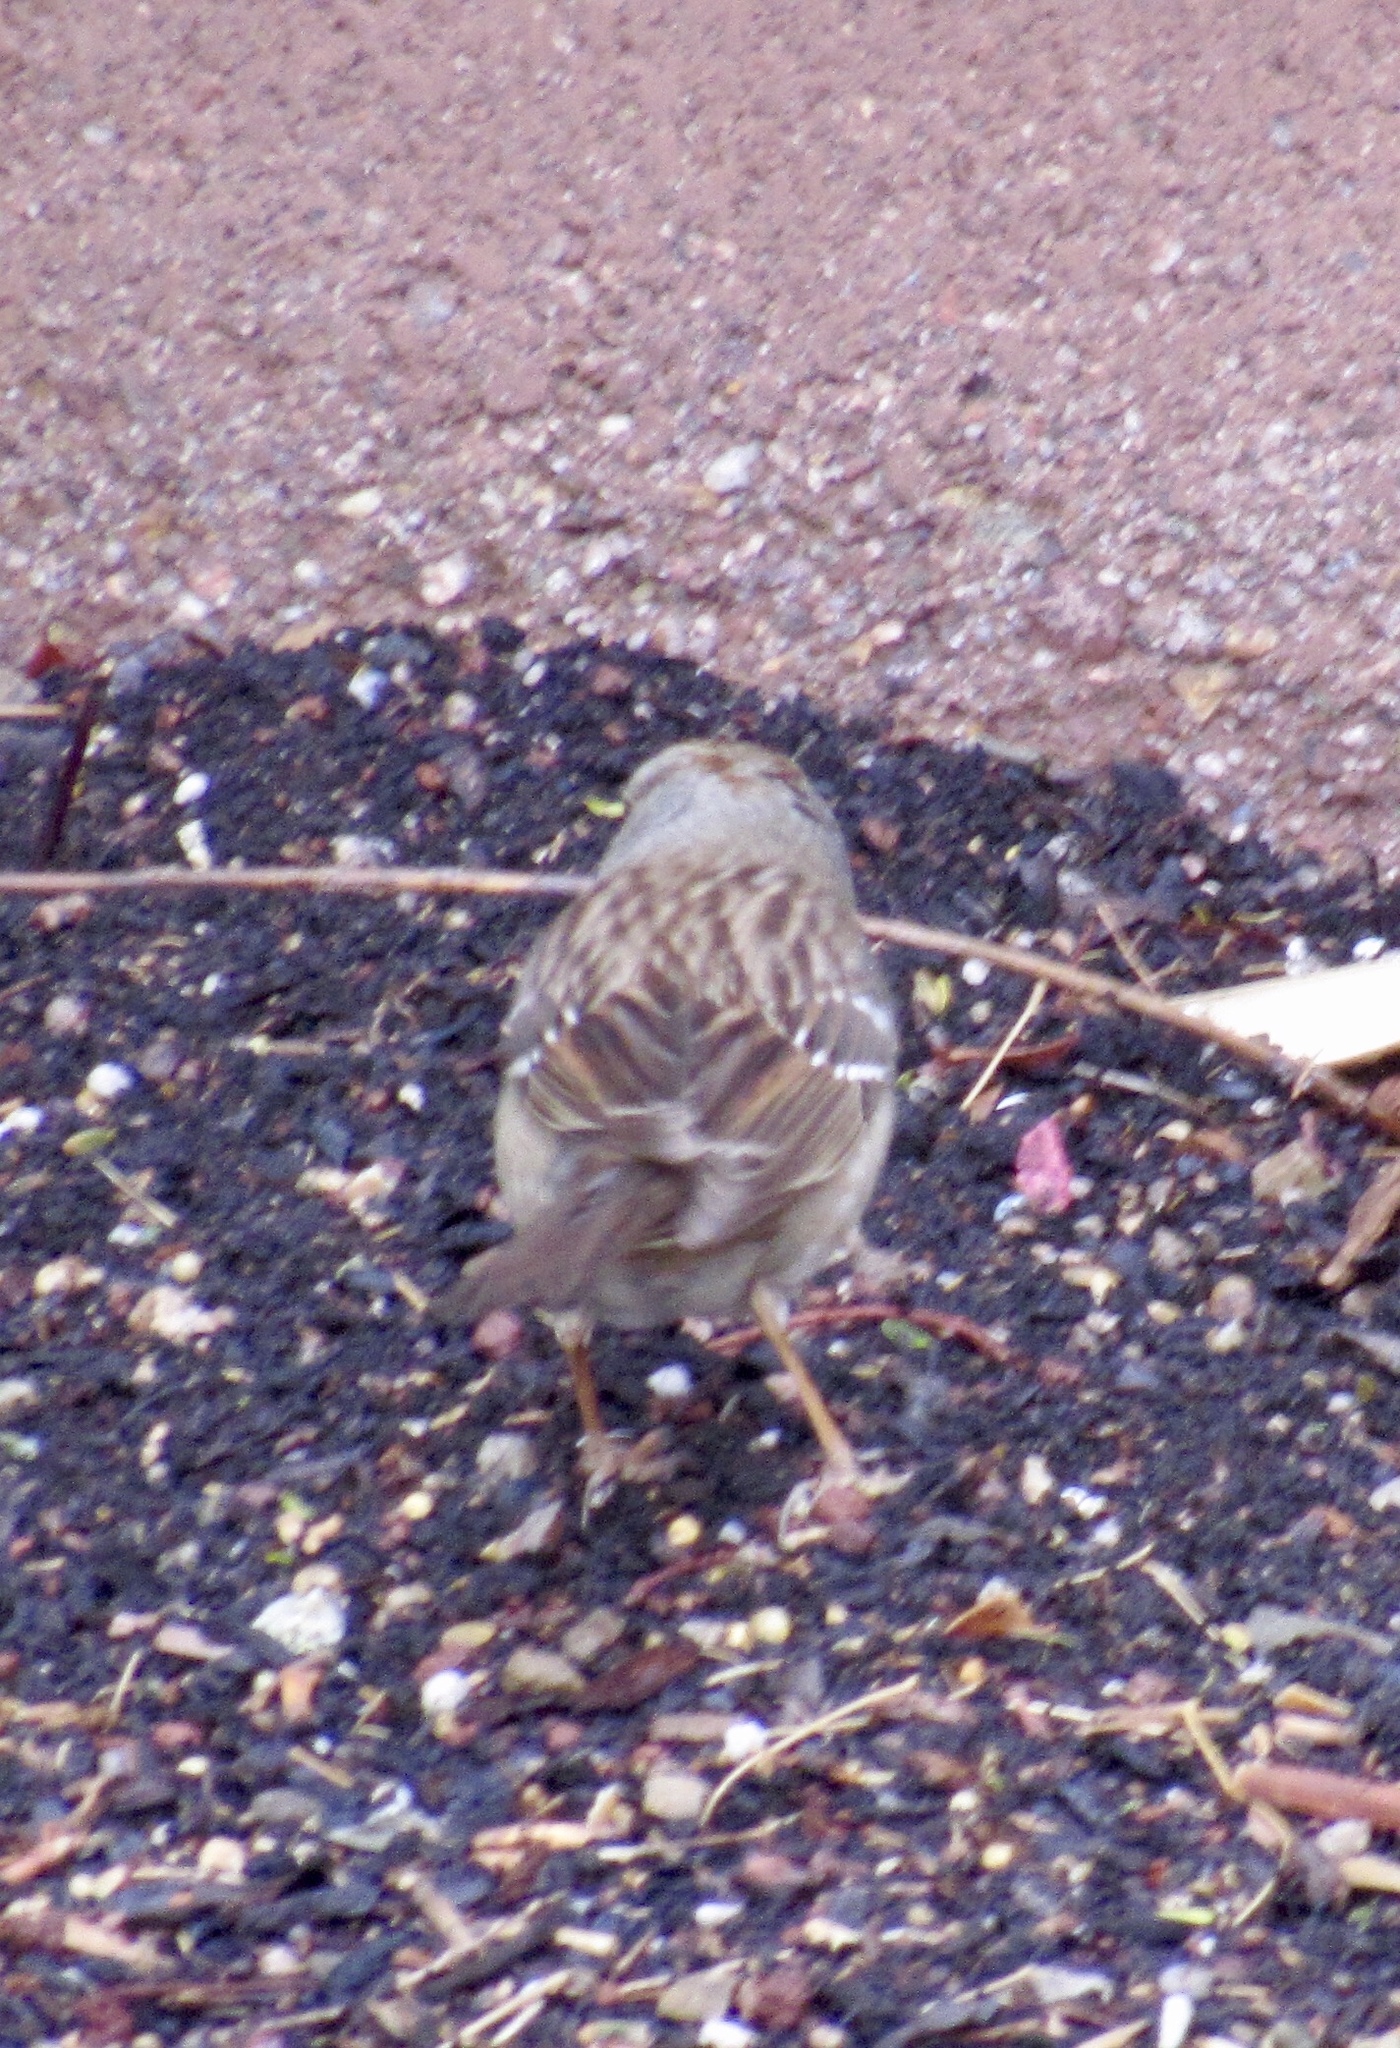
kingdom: Animalia
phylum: Chordata
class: Aves
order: Passeriformes
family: Passerellidae
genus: Zonotrichia
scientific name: Zonotrichia leucophrys
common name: White-crowned sparrow
